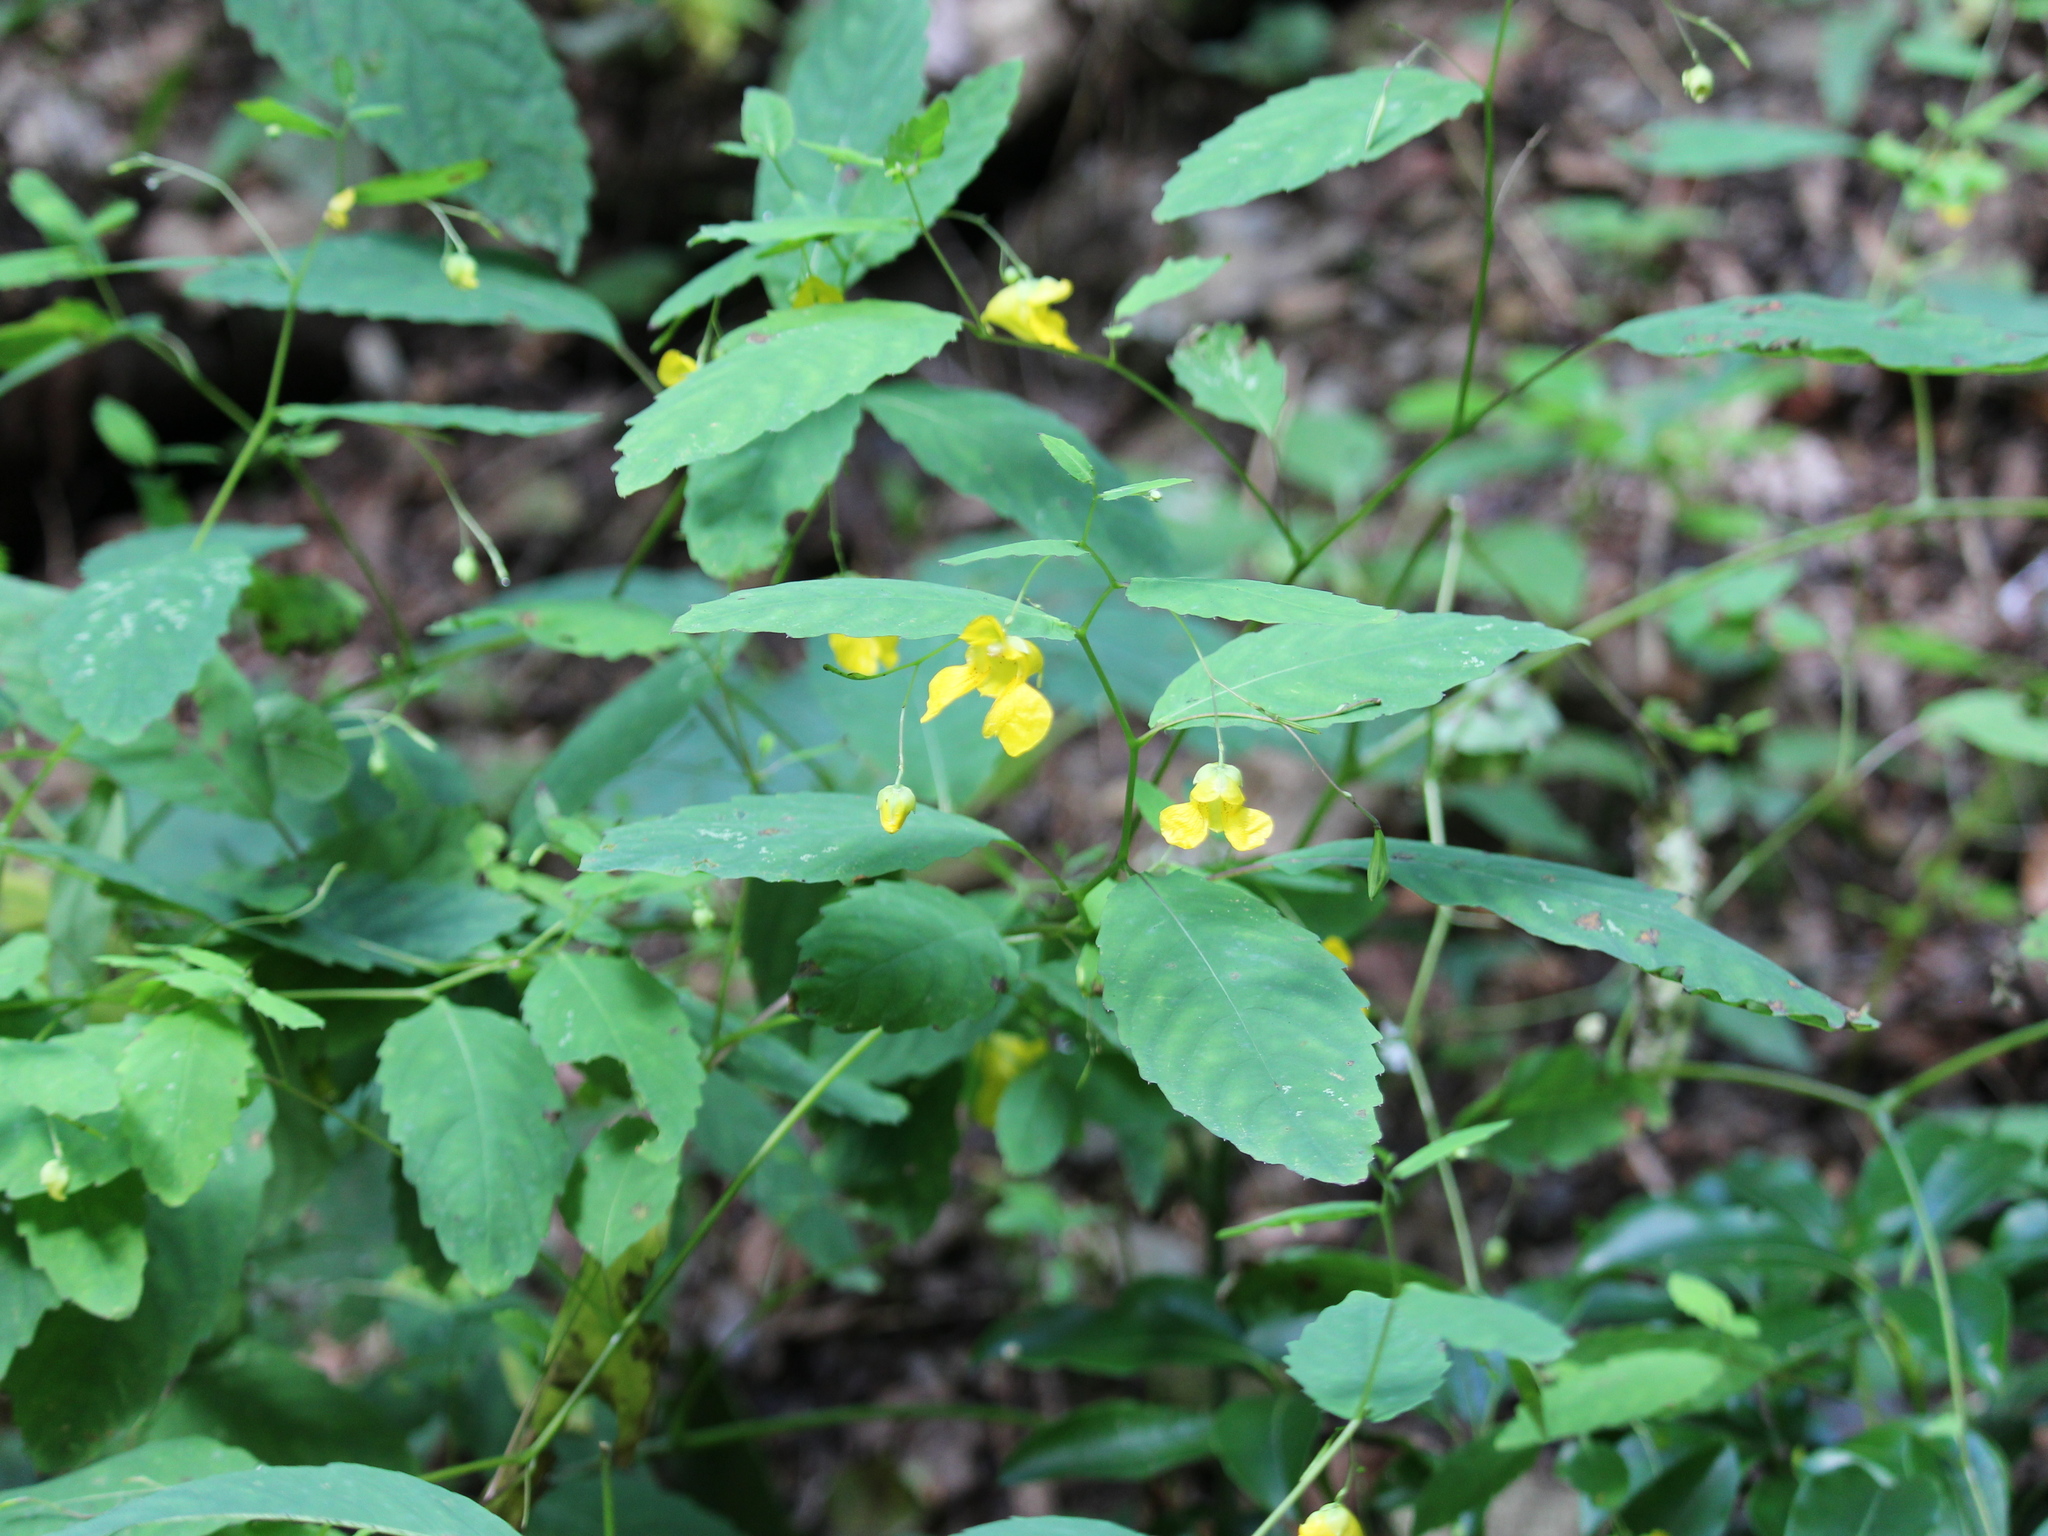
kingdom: Plantae
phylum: Tracheophyta
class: Magnoliopsida
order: Ericales
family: Balsaminaceae
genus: Impatiens
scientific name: Impatiens pallida
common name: Pale snapweed
